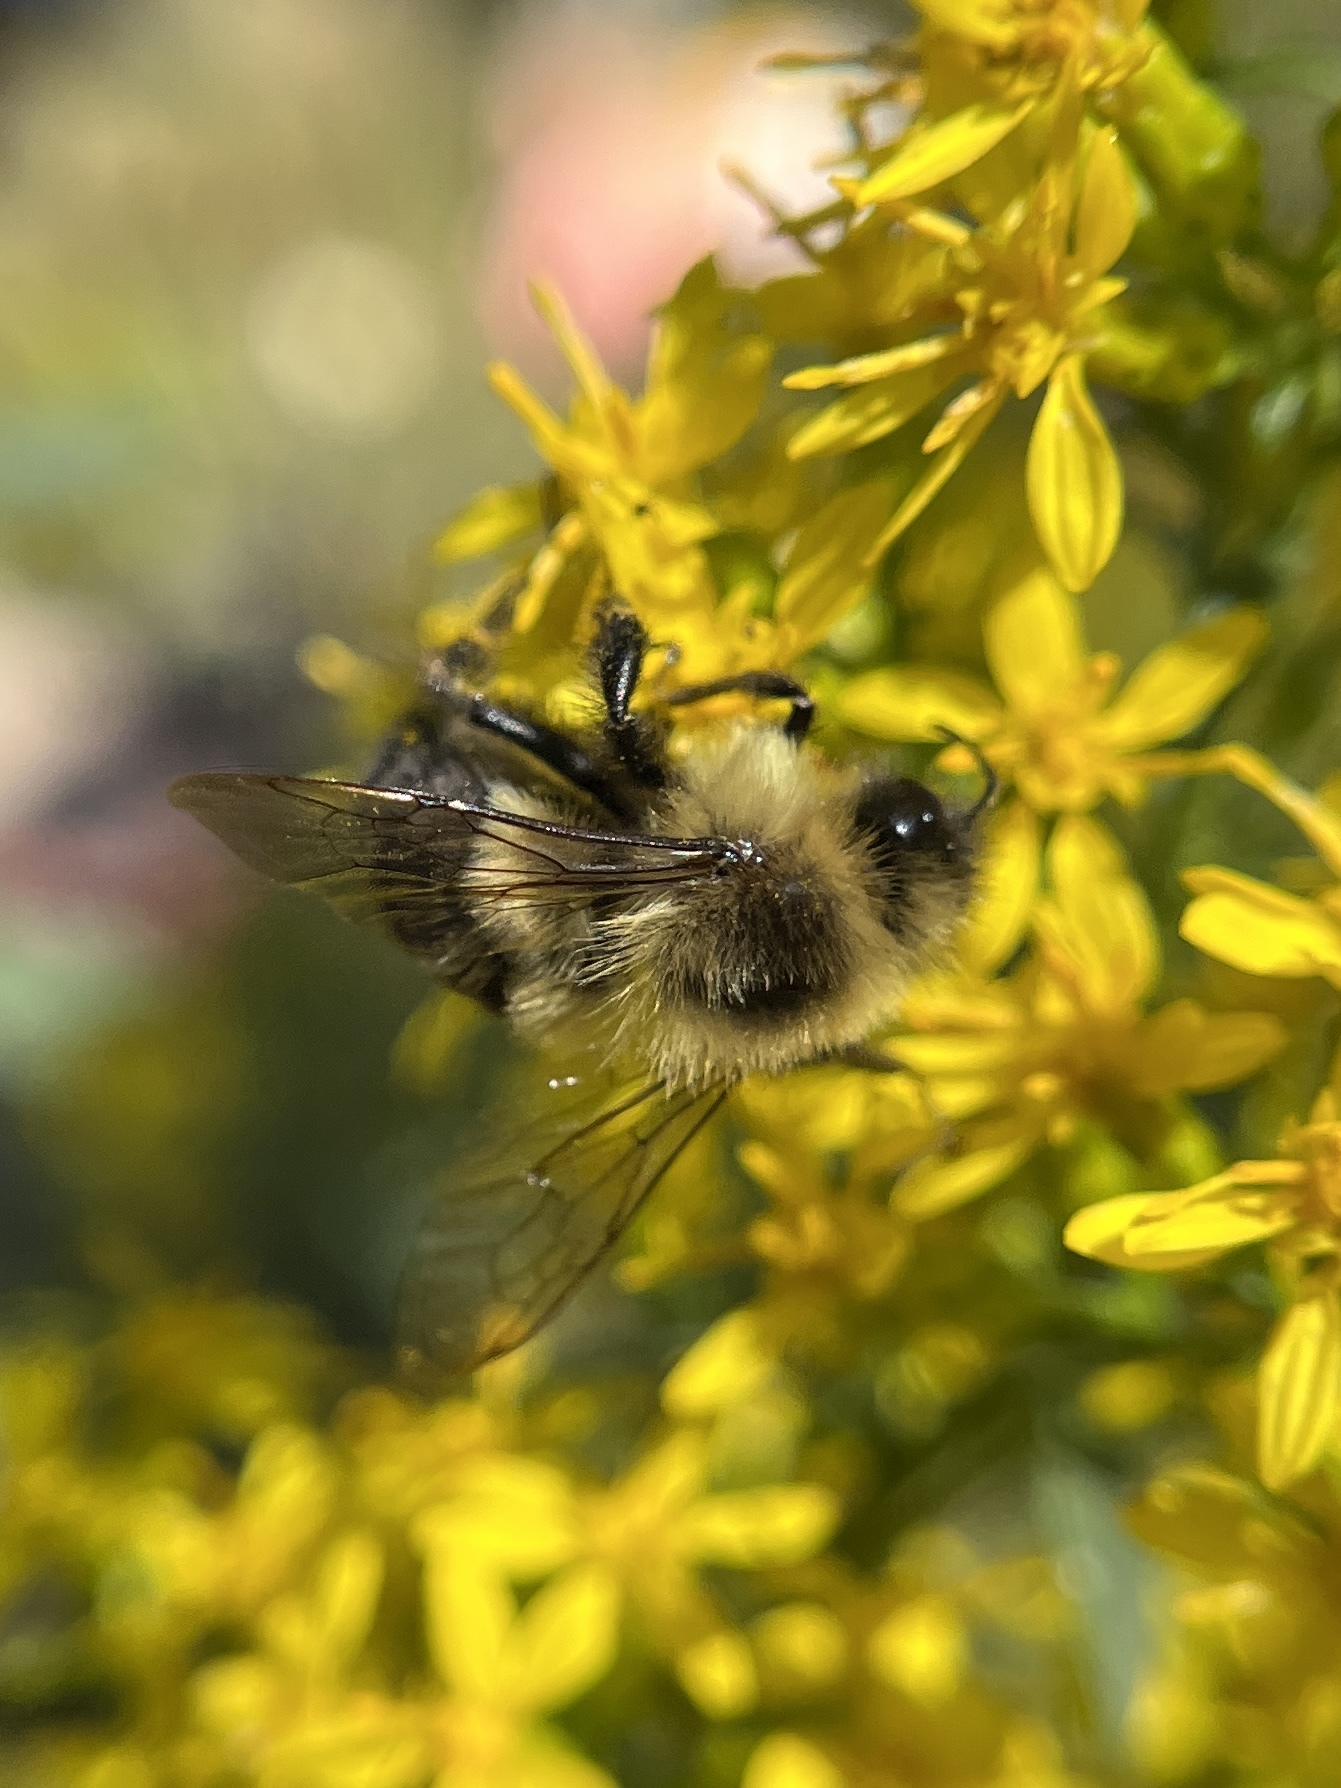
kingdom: Animalia
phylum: Arthropoda
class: Insecta
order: Hymenoptera
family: Apidae
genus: Bombus
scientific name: Bombus impatiens
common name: Common eastern bumble bee
